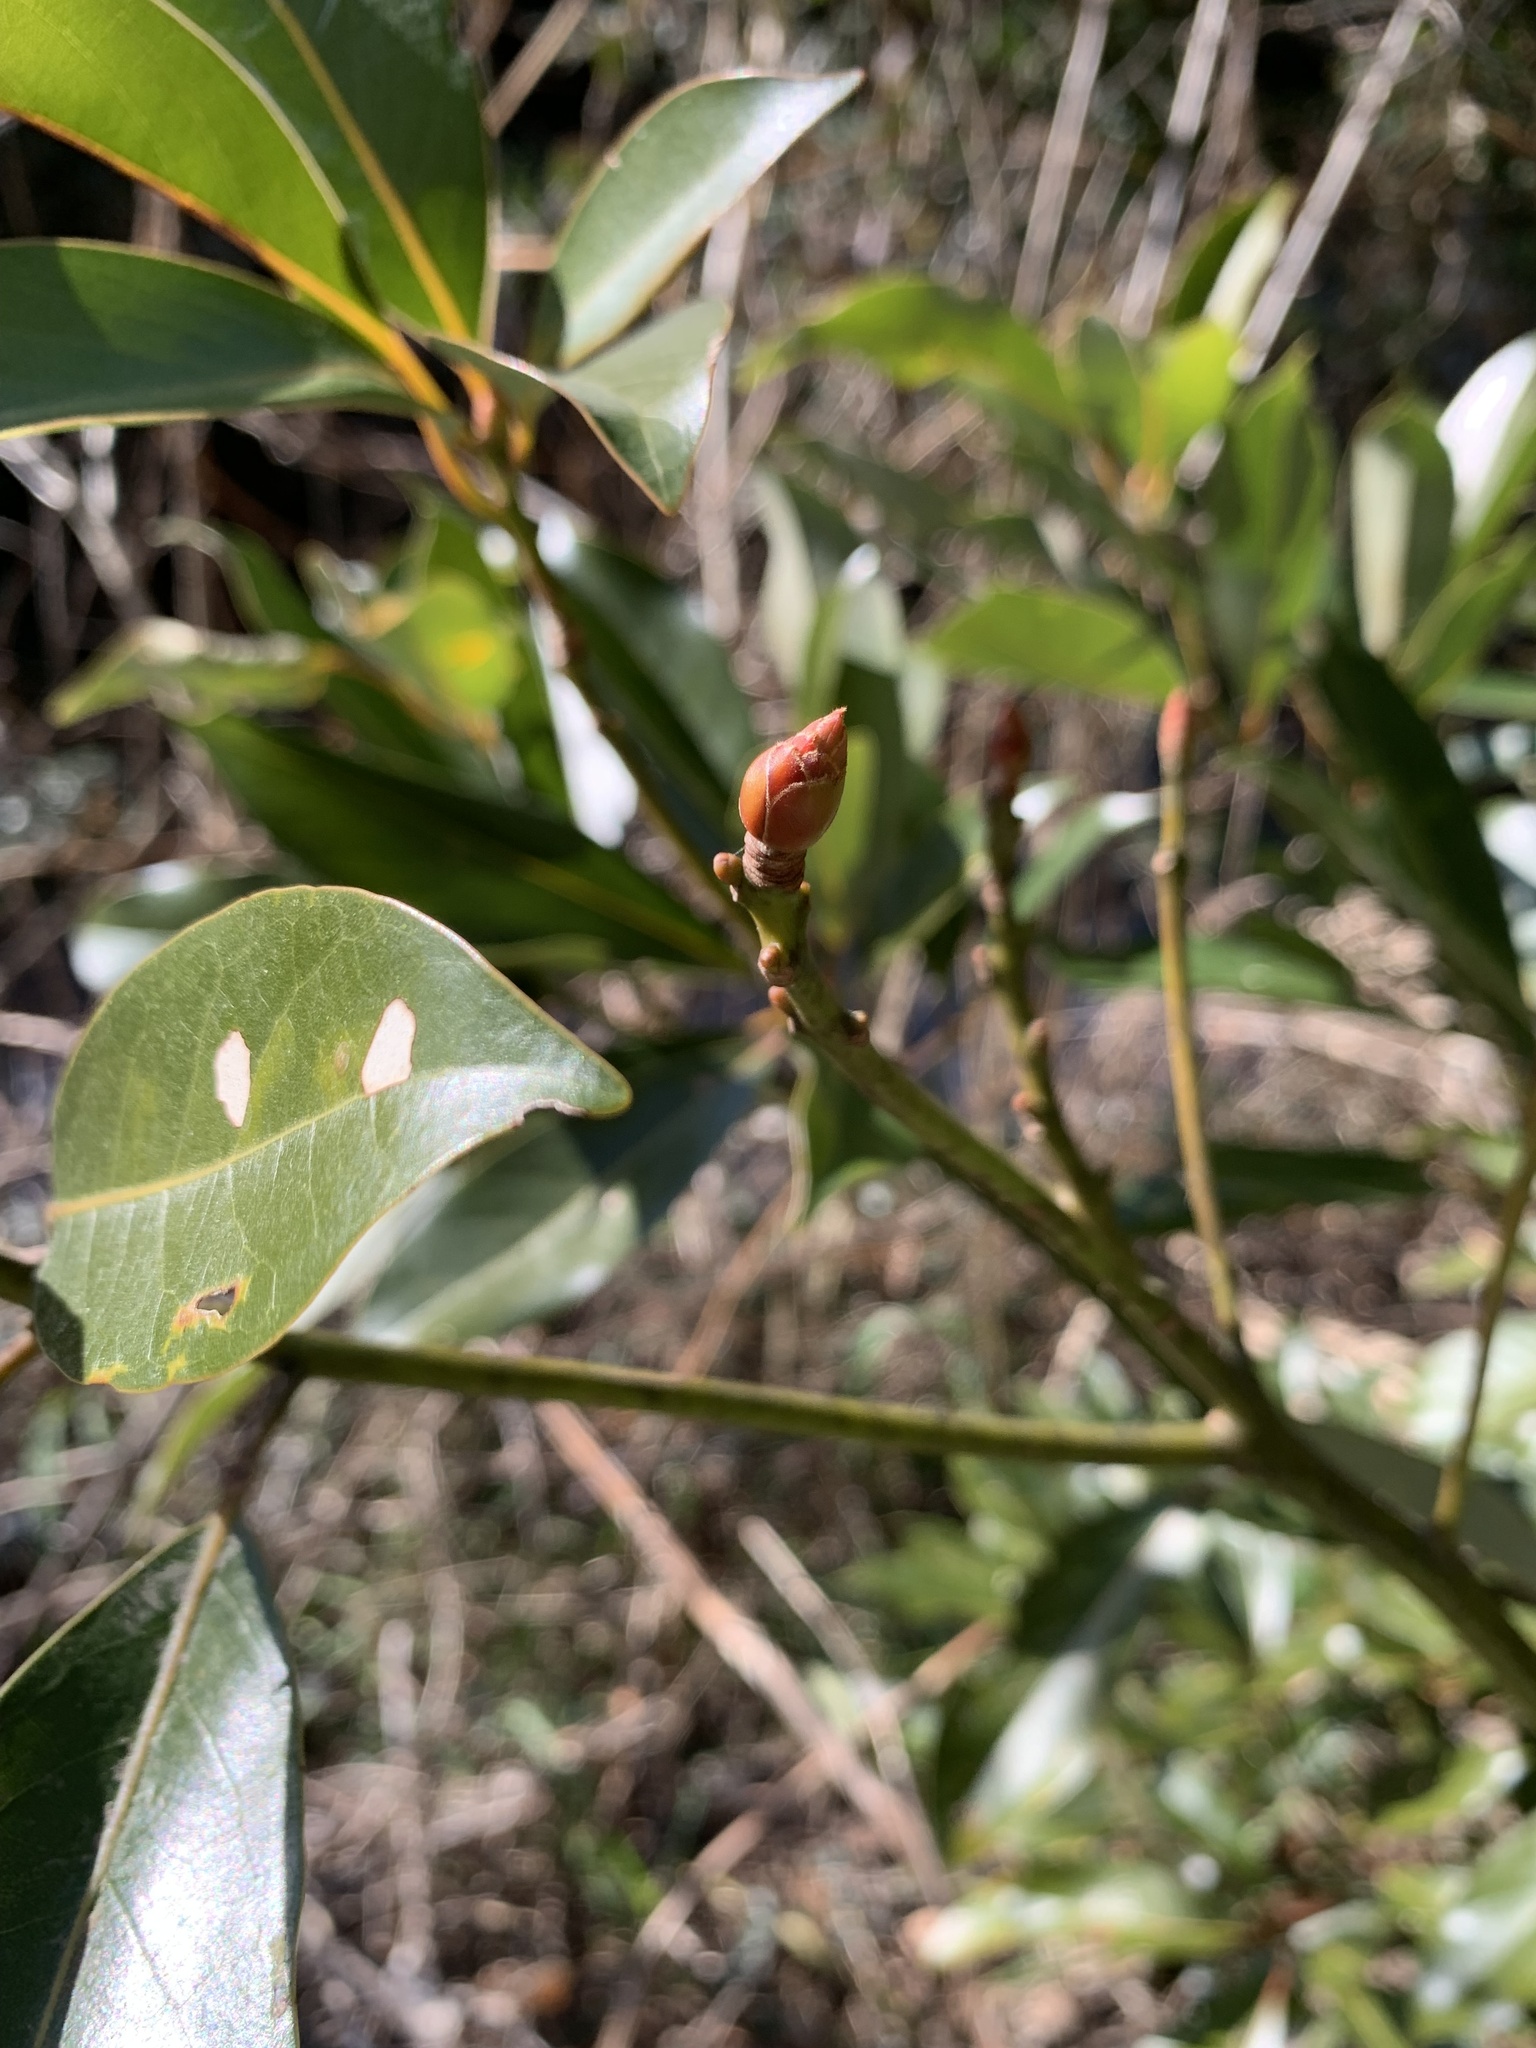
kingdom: Plantae
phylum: Tracheophyta
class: Magnoliopsida
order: Laurales
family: Lauraceae
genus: Machilus
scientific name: Machilus thunbergii
